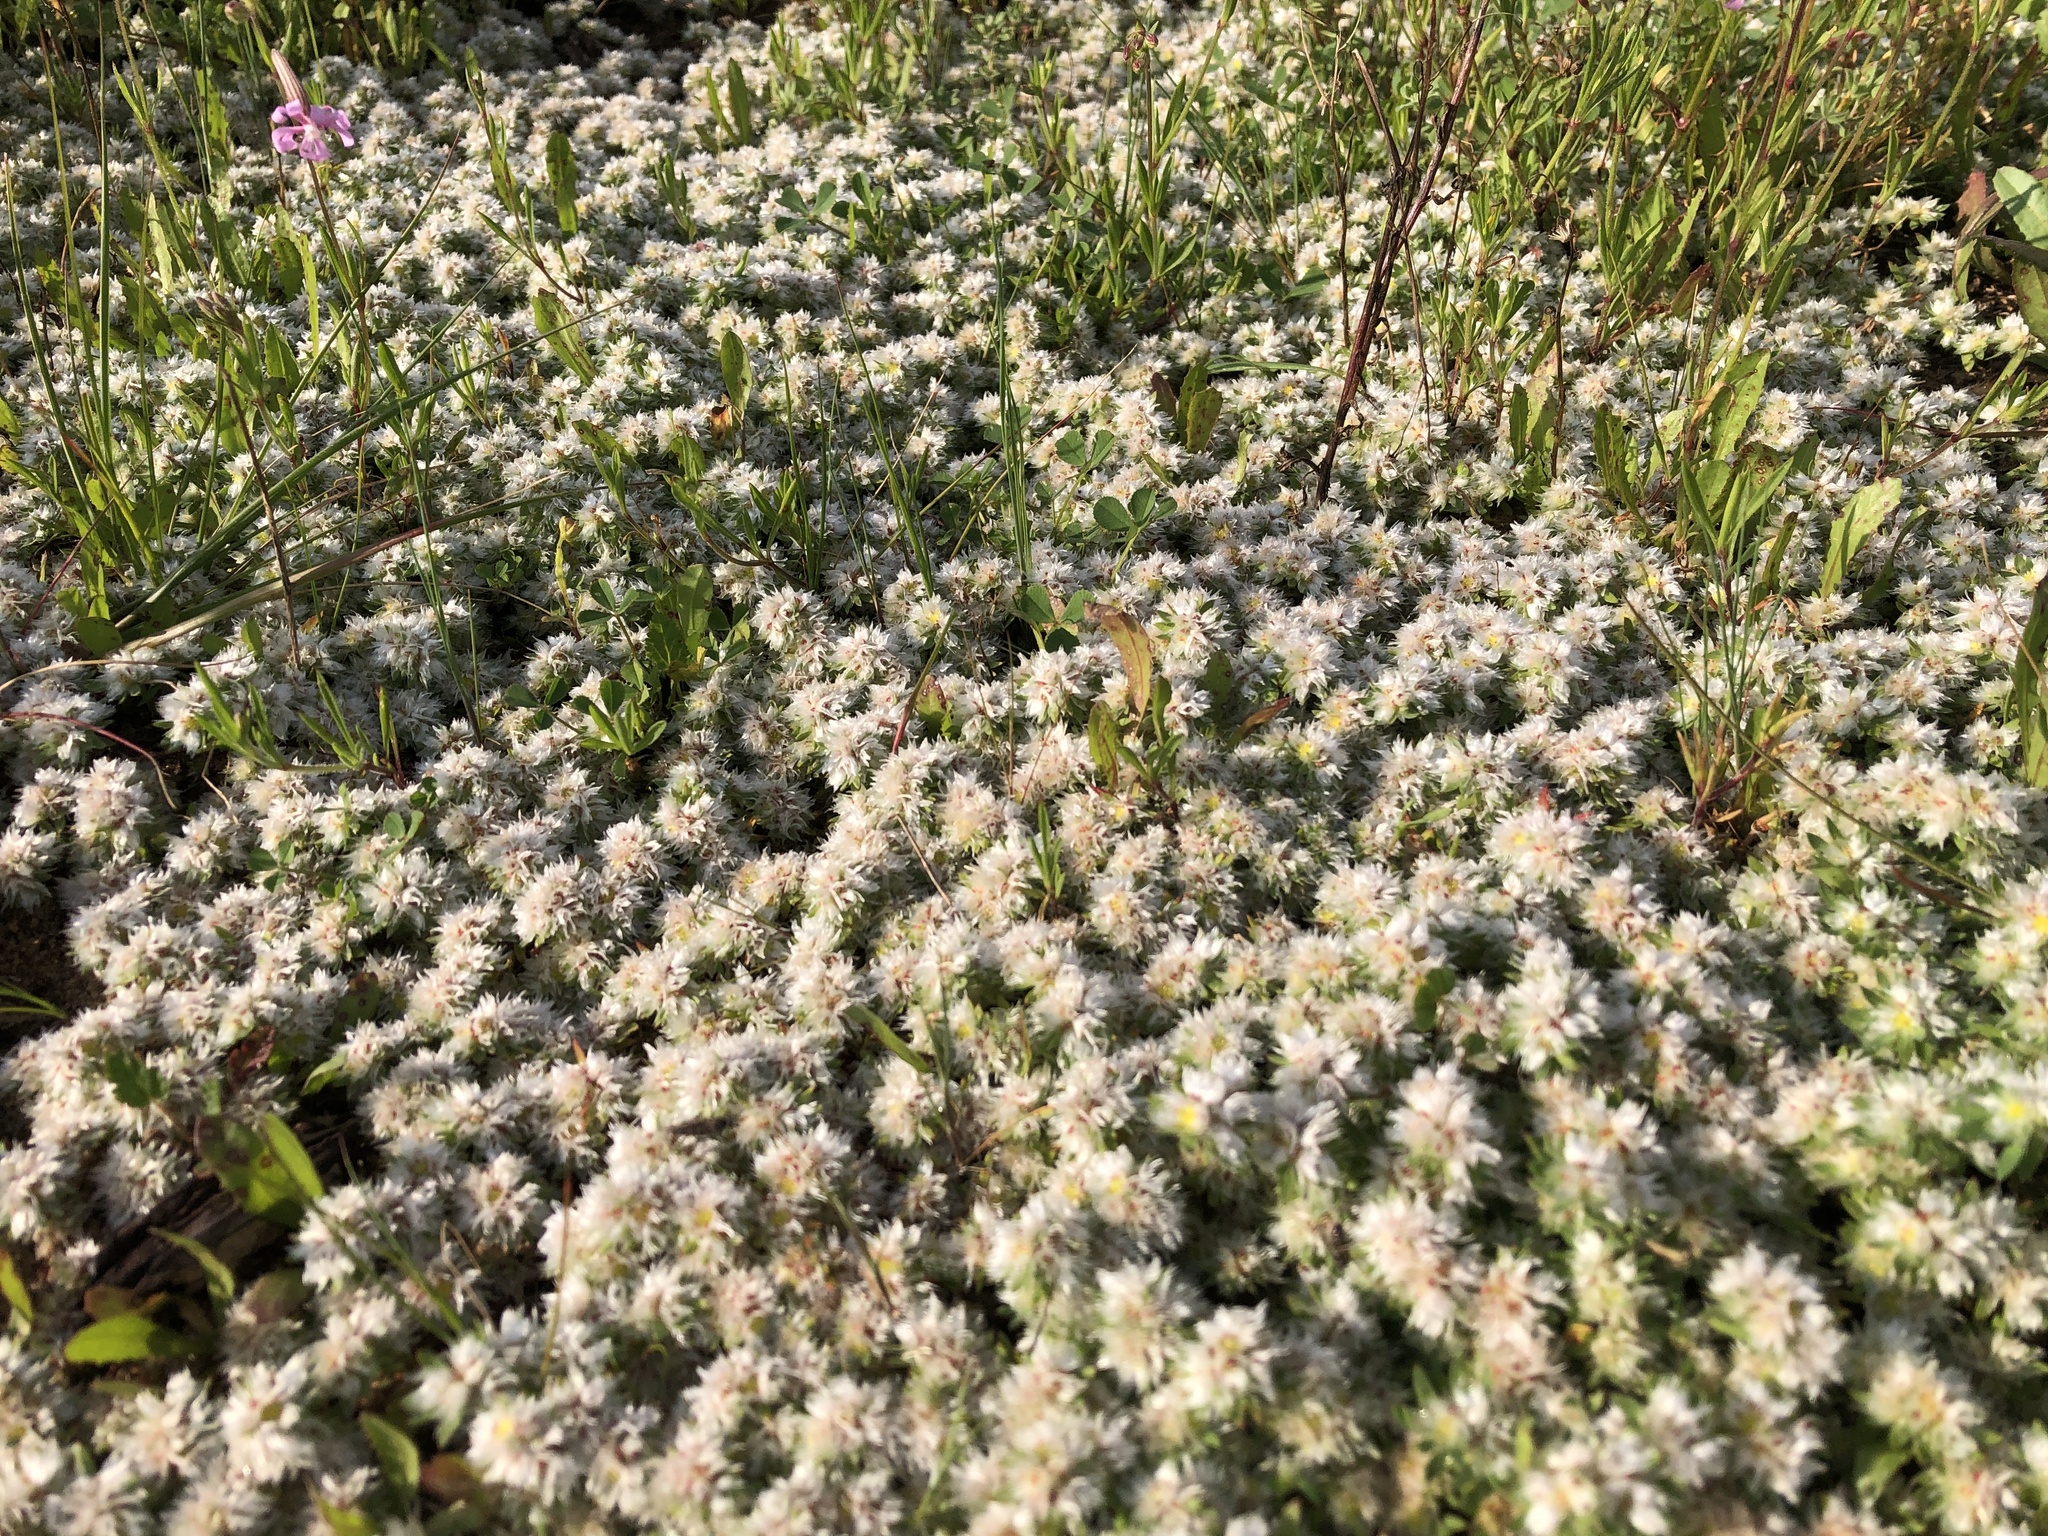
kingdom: Plantae
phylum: Tracheophyta
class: Magnoliopsida
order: Caryophyllales
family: Caryophyllaceae
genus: Paronychia
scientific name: Paronychia argentea
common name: Silver nailroot
